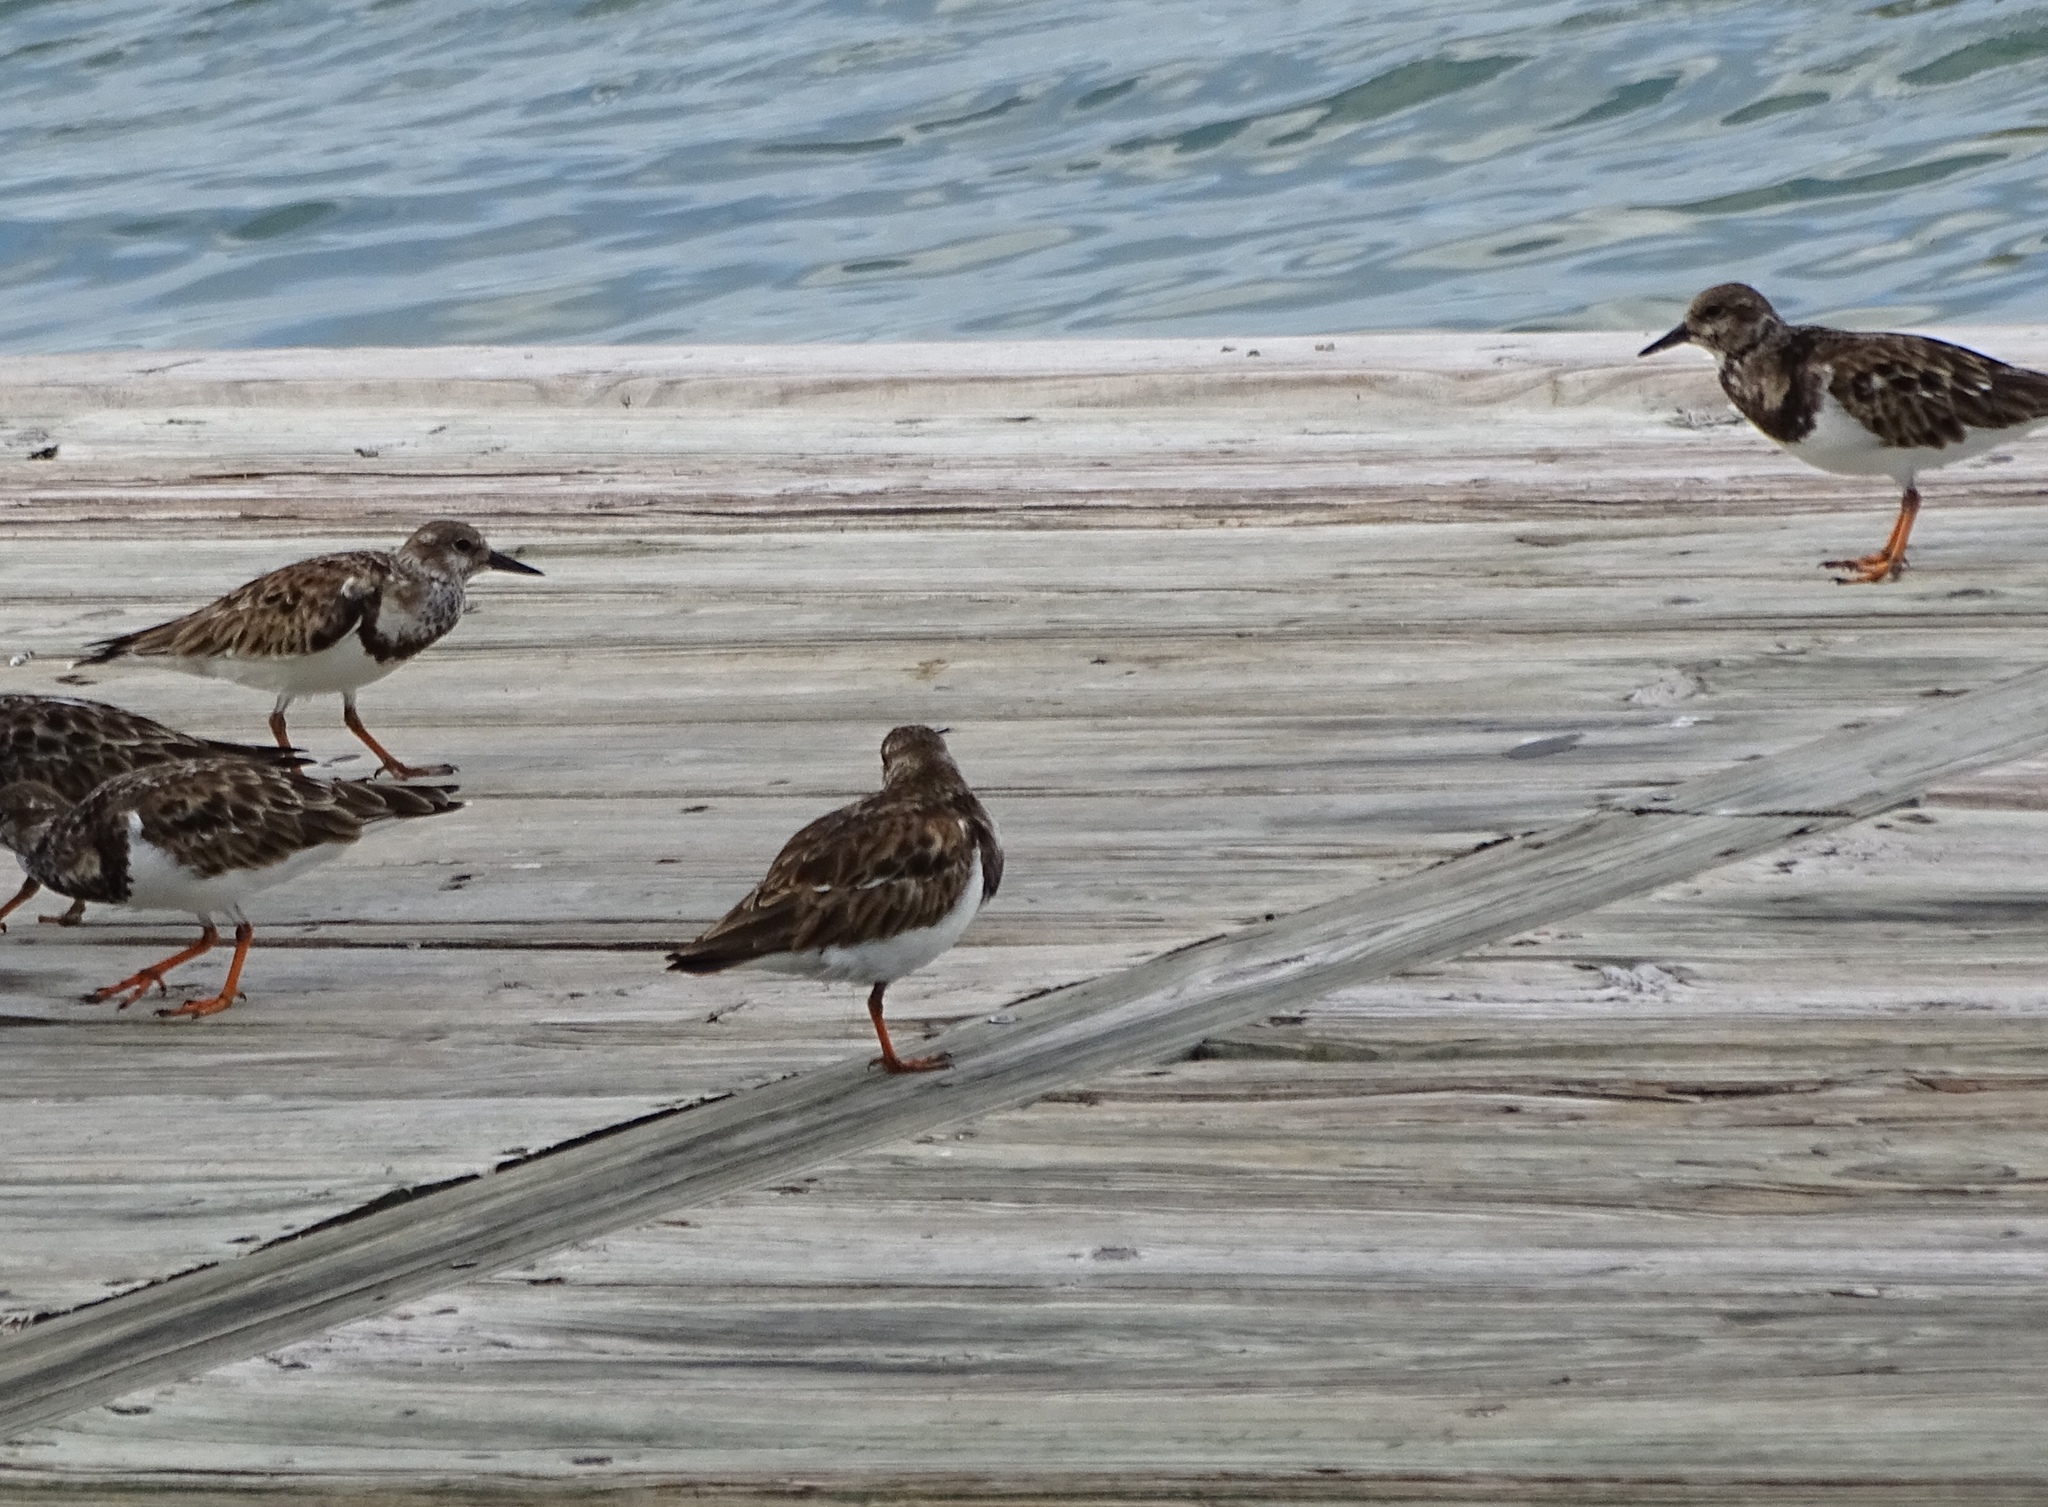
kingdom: Animalia
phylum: Chordata
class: Aves
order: Charadriiformes
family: Scolopacidae
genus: Arenaria
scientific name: Arenaria interpres
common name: Ruddy turnstone
